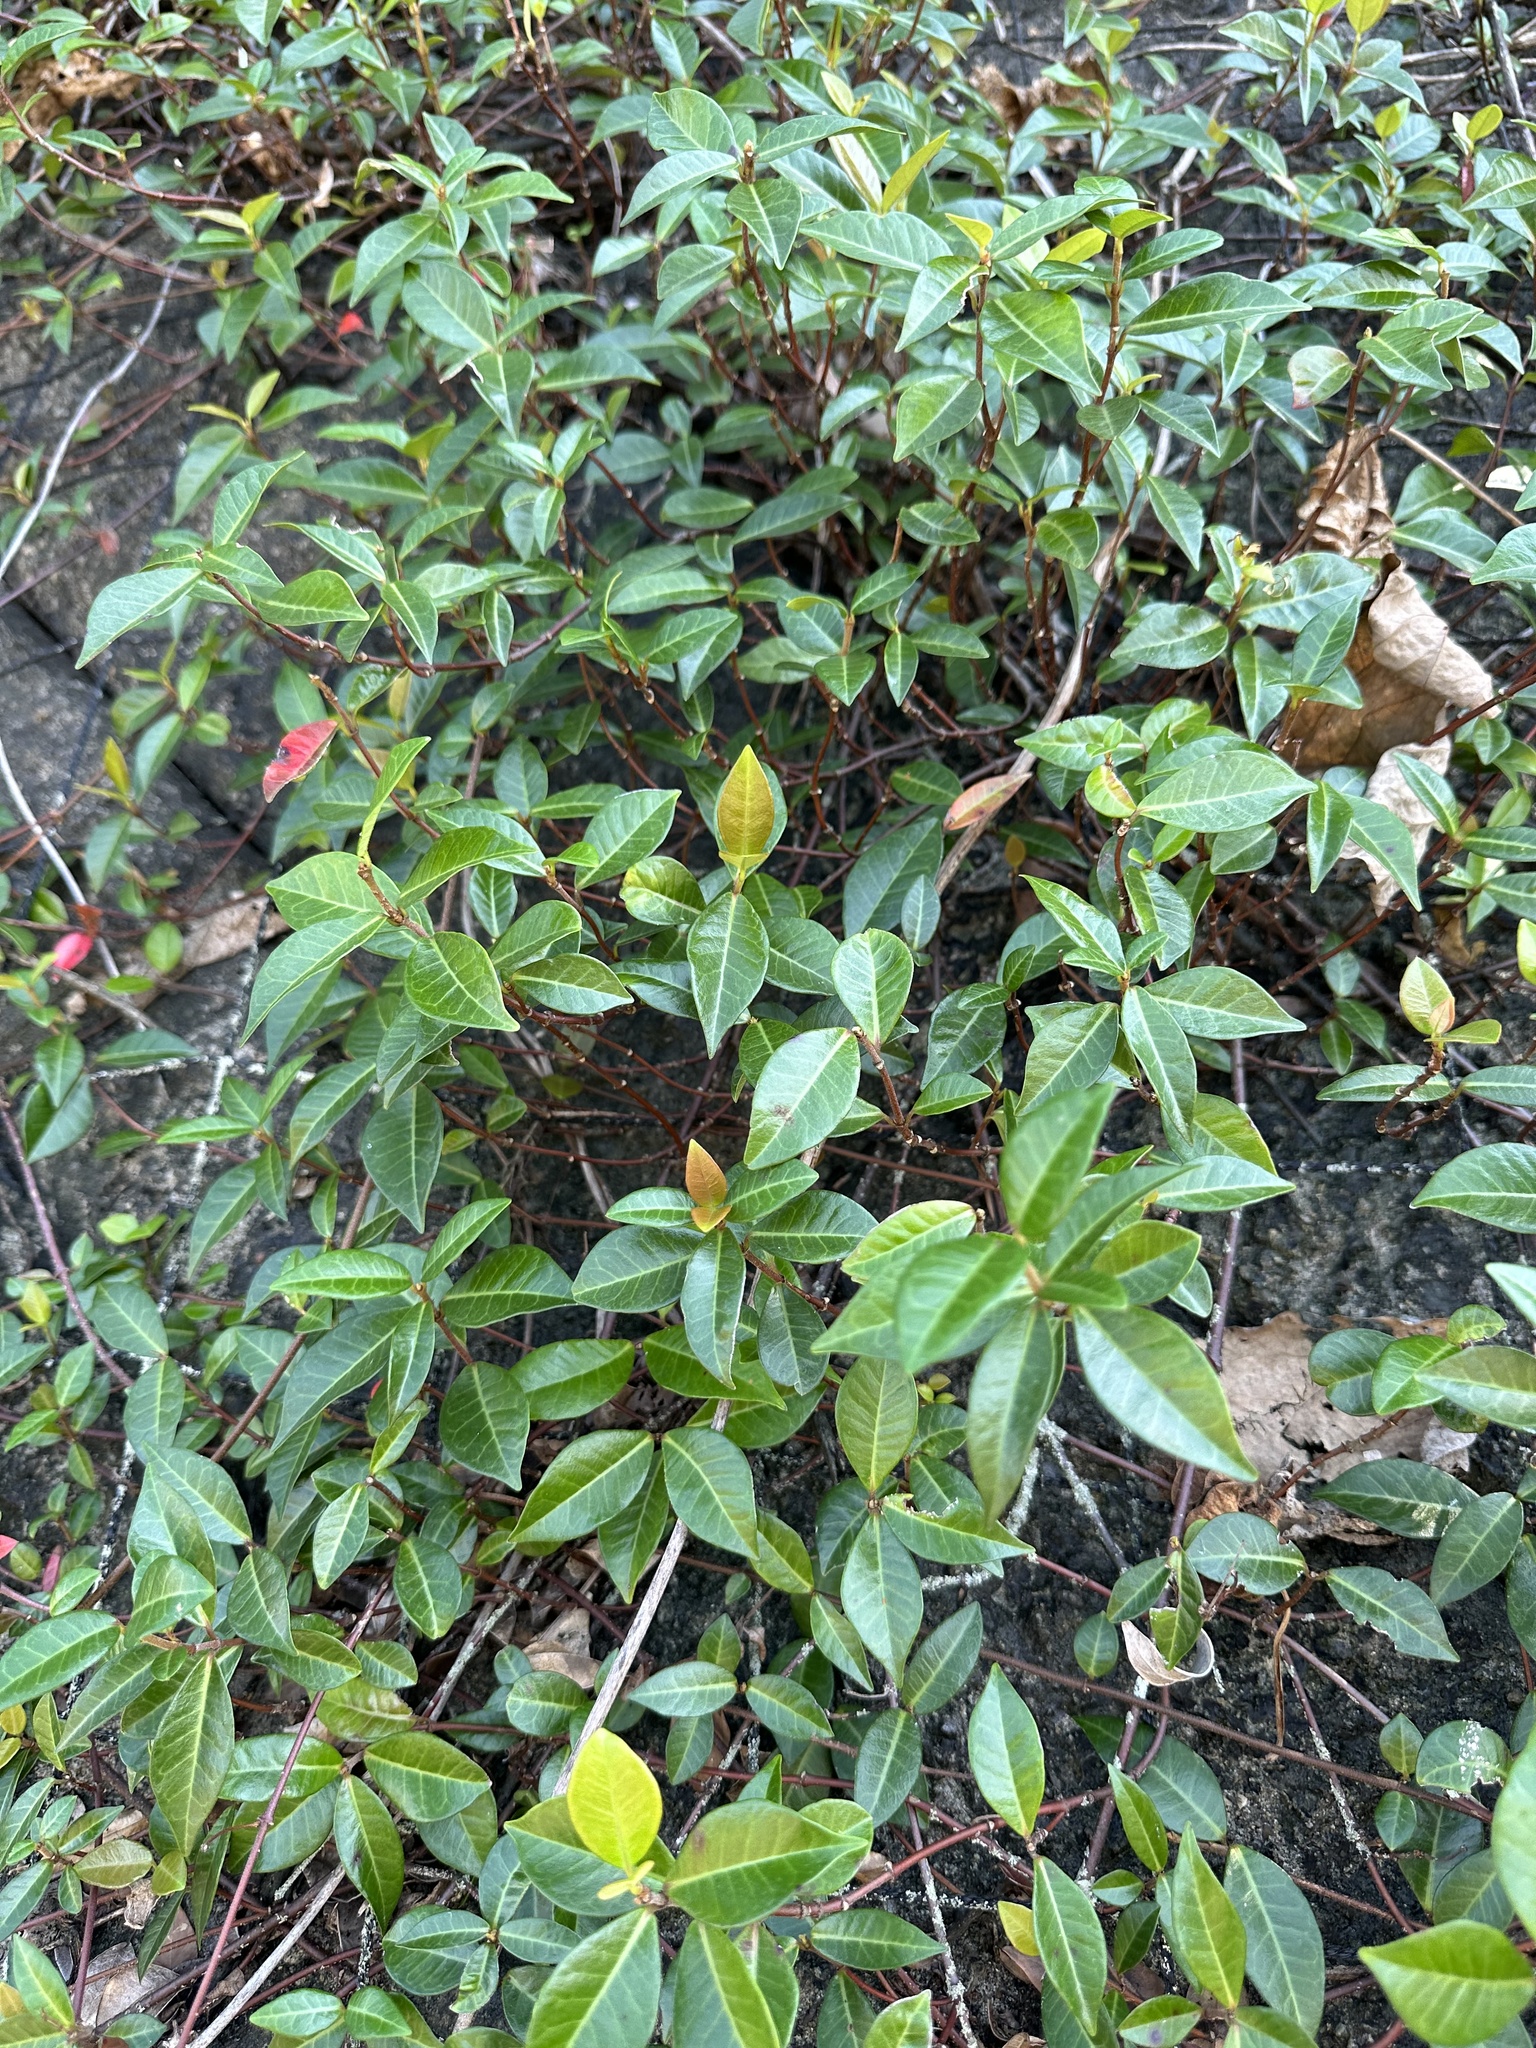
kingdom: Plantae
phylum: Tracheophyta
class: Magnoliopsida
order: Gentianales
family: Apocynaceae
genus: Trachelospermum
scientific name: Trachelospermum asiaticum
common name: Asiatic jasmine
